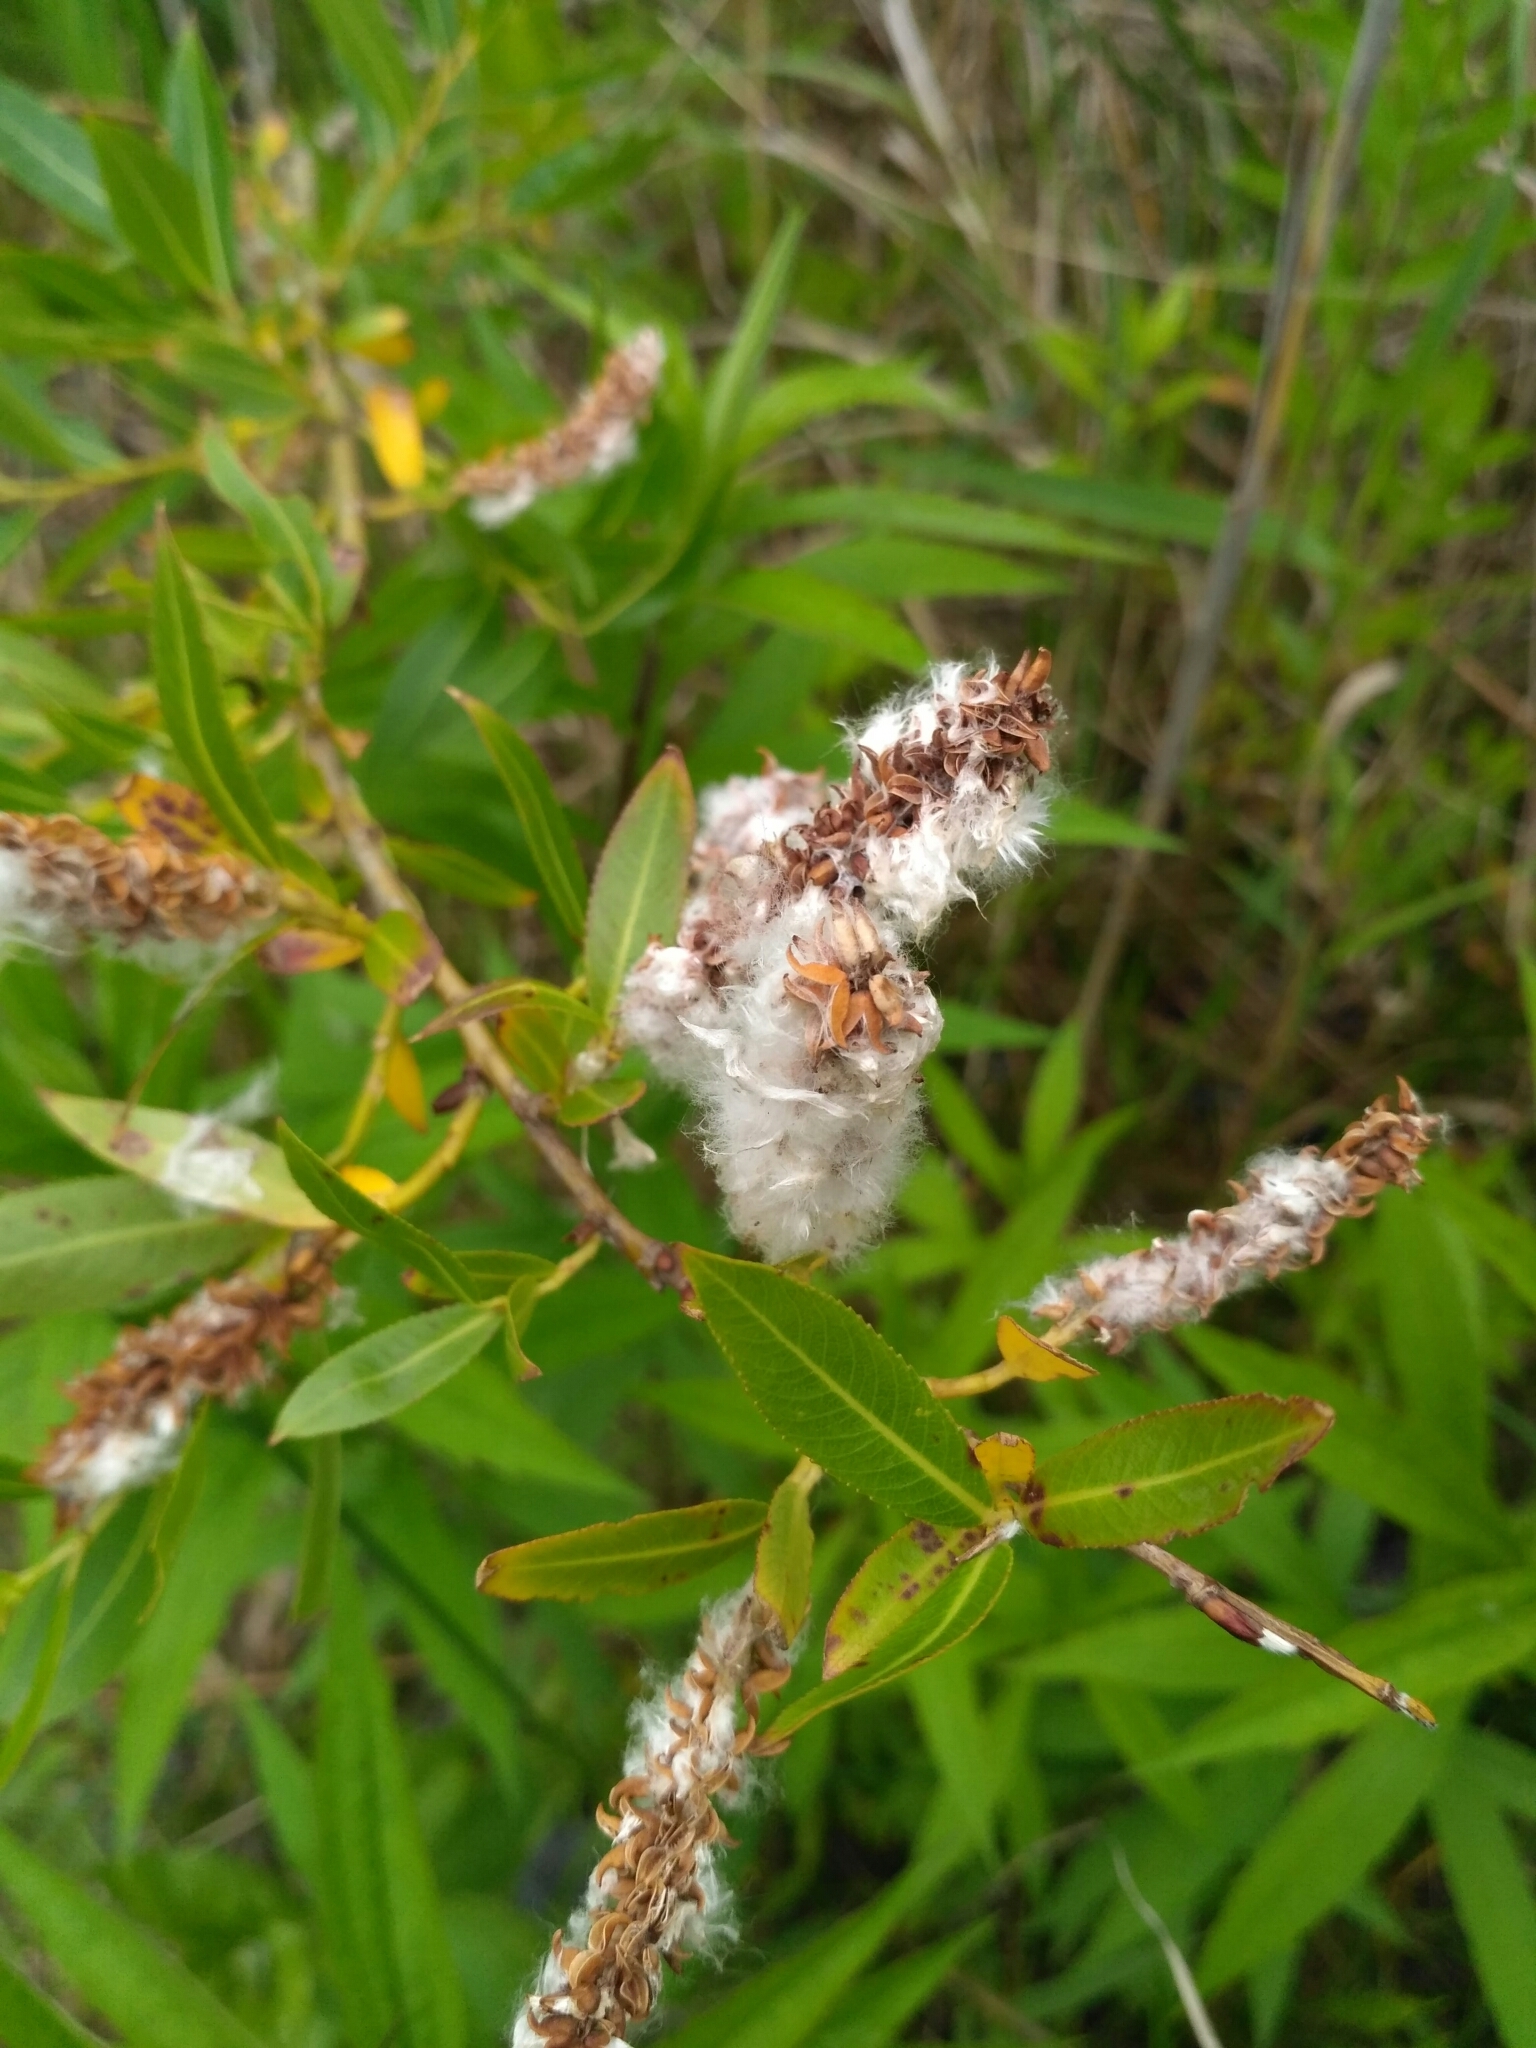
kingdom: Plantae
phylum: Tracheophyta
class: Magnoliopsida
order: Malpighiales
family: Salicaceae
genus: Salix
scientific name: Salix triandra
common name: Almond willow
